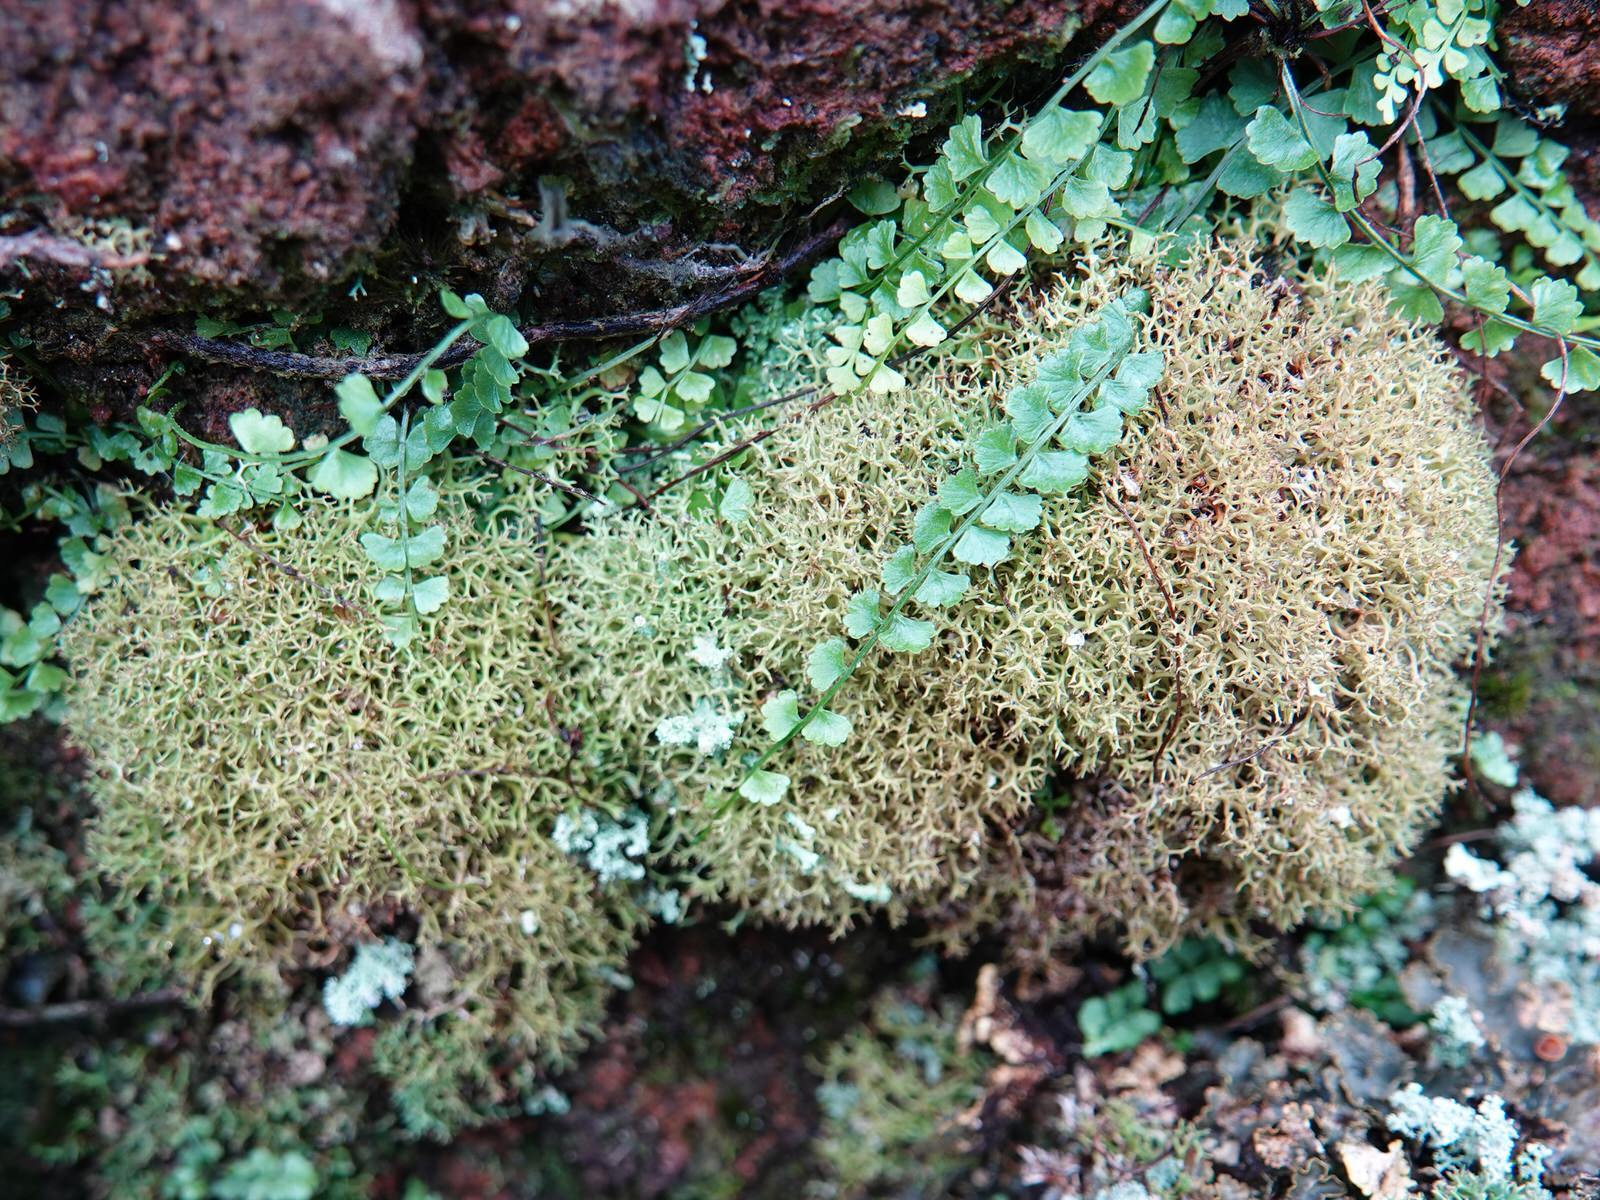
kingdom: Plantae
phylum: Tracheophyta
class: Polypodiopsida
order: Polypodiales
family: Aspleniaceae
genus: Asplenium
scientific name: Asplenium flabellifolium
